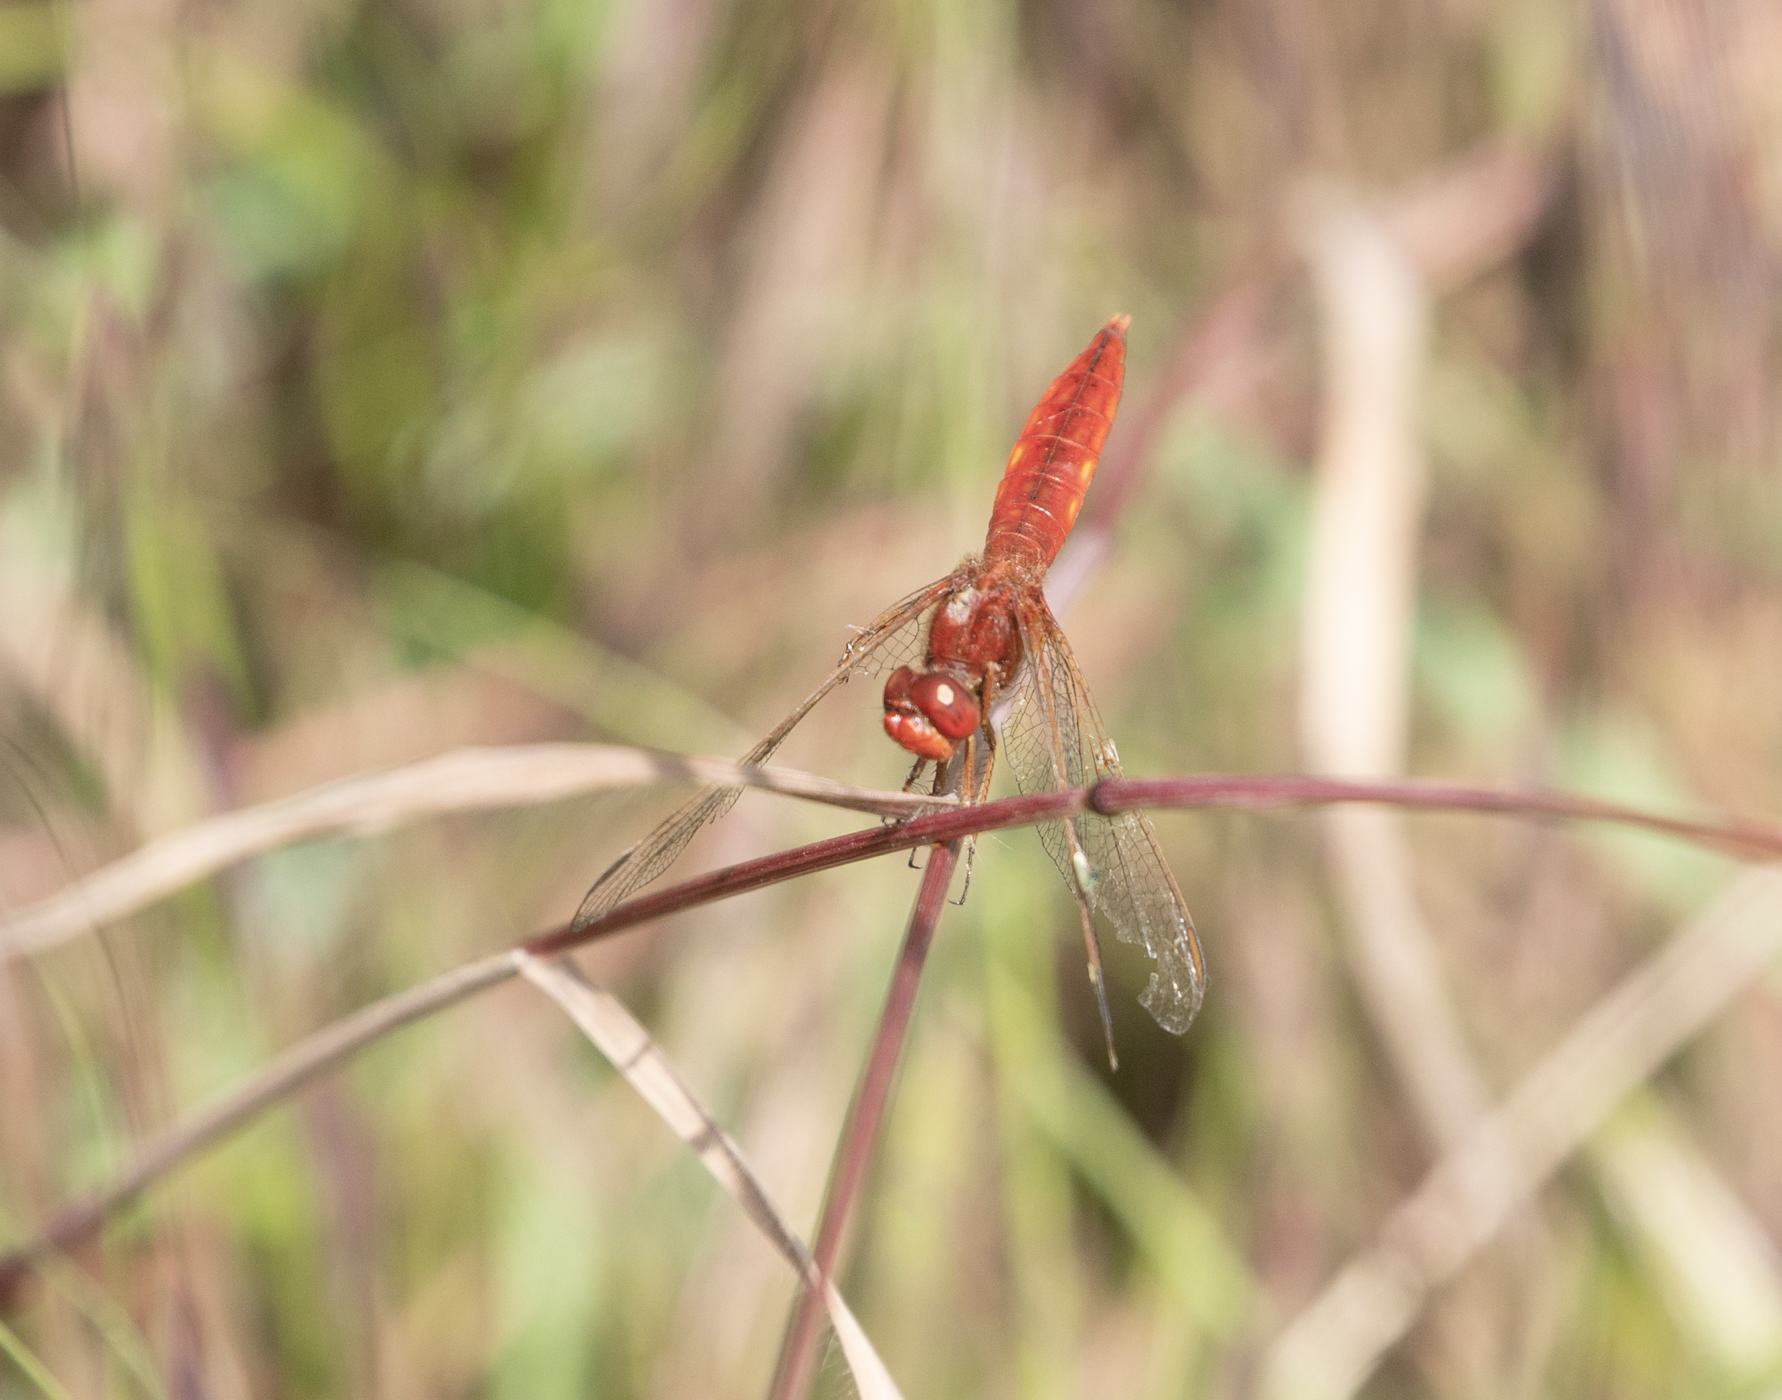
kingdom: Animalia
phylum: Arthropoda
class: Insecta
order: Odonata
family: Libellulidae
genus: Crocothemis
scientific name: Crocothemis erythraea
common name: Scarlet dragonfly
